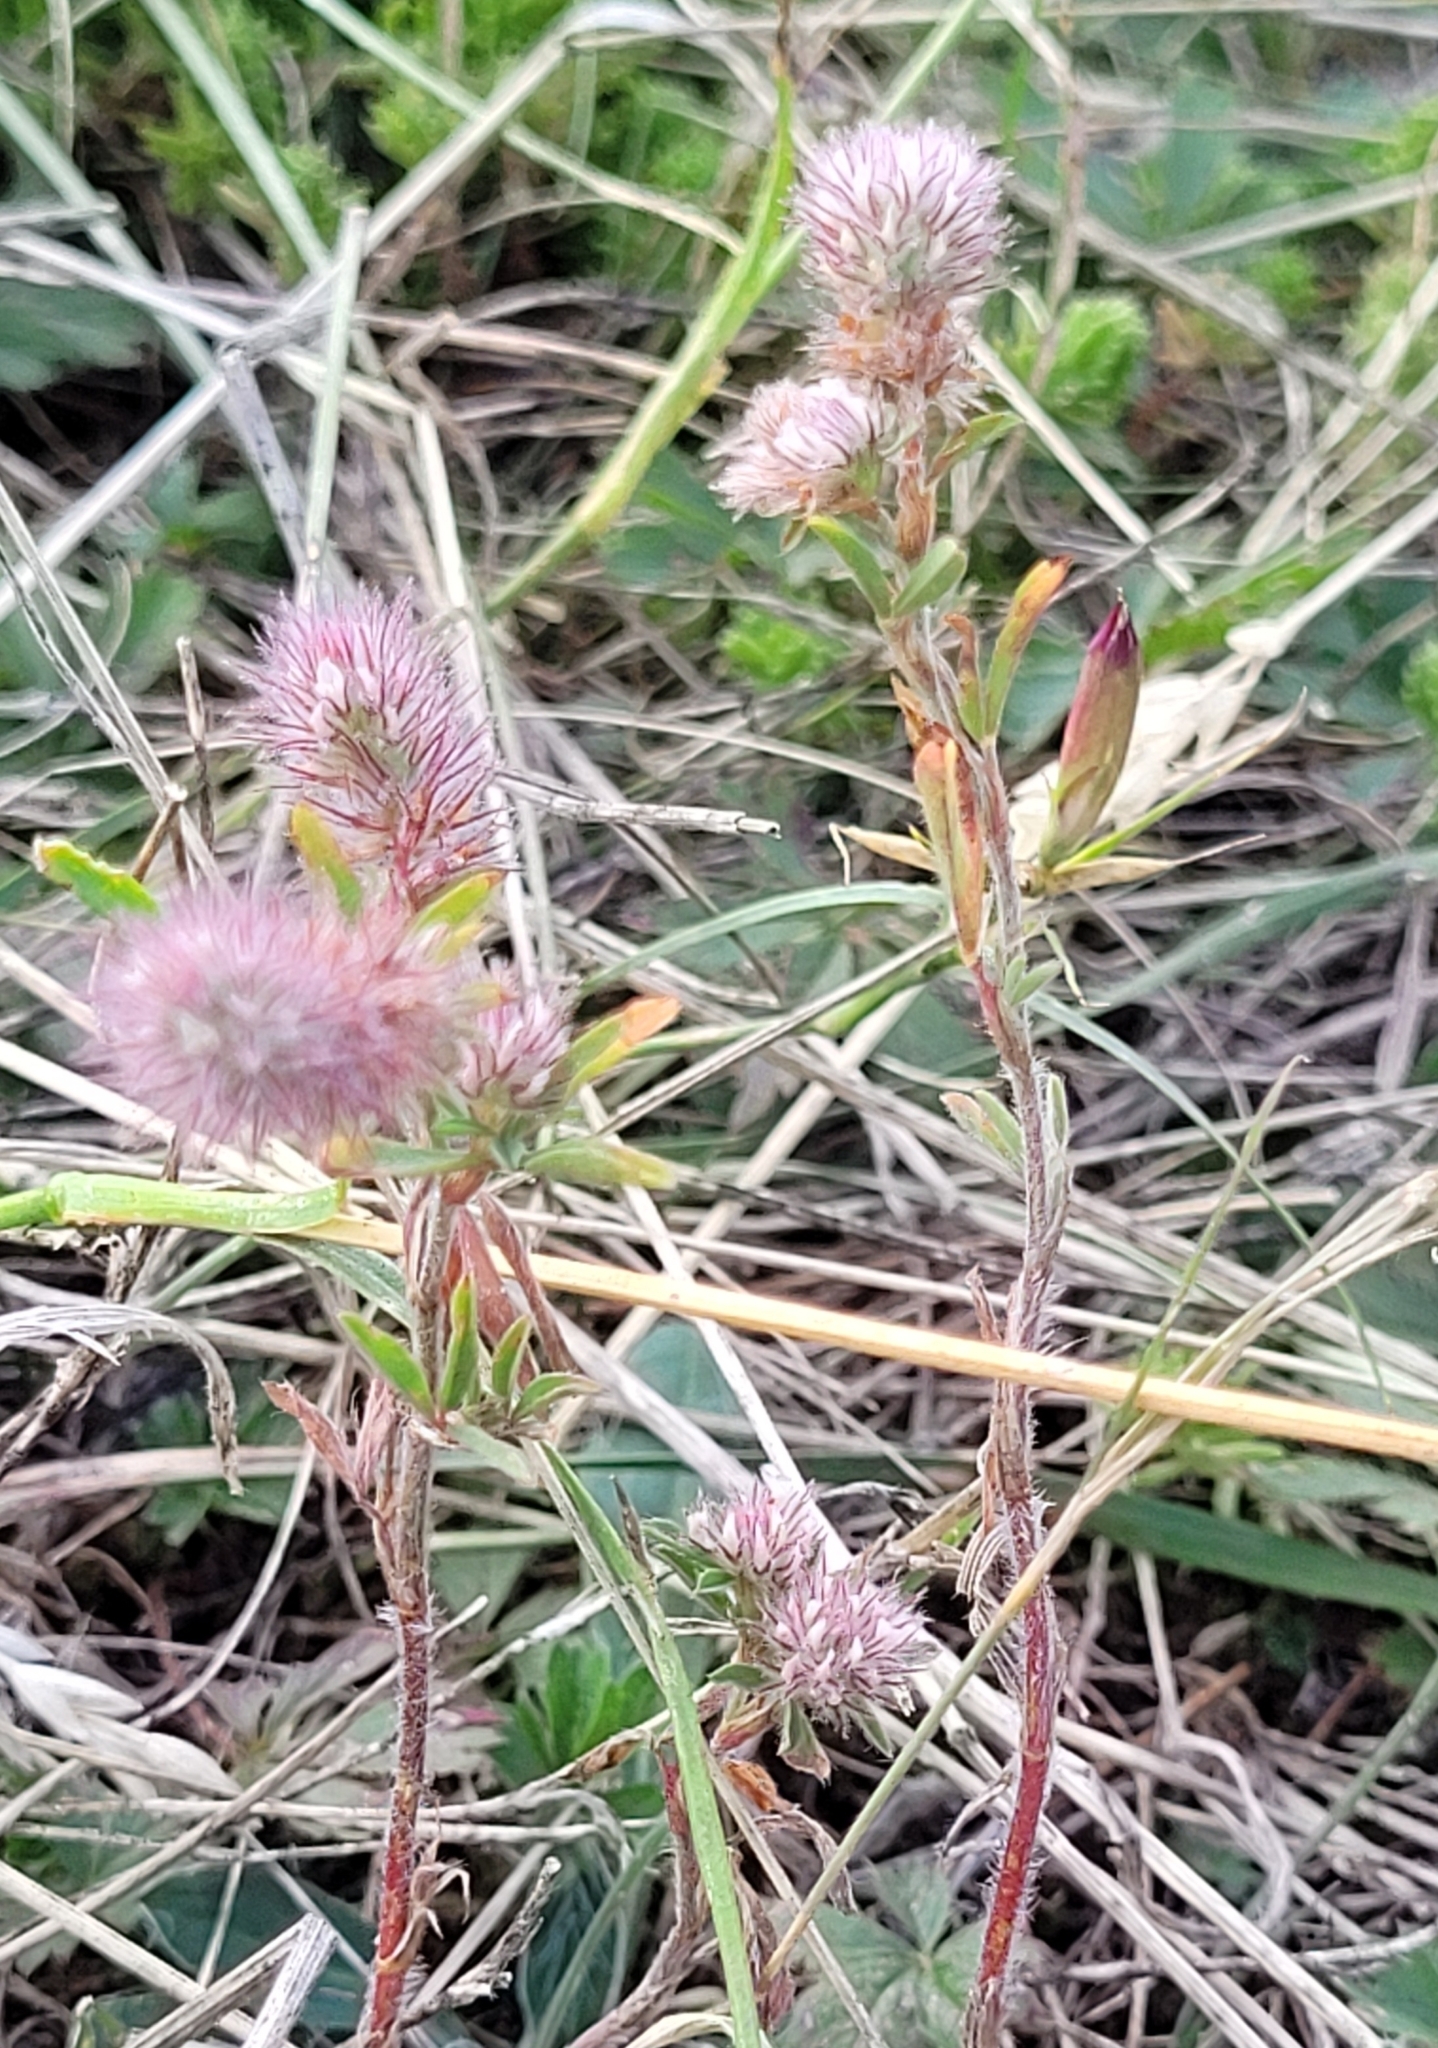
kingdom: Plantae
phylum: Tracheophyta
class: Magnoliopsida
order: Fabales
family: Fabaceae
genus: Trifolium
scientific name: Trifolium arvense
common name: Hare's-foot clover
